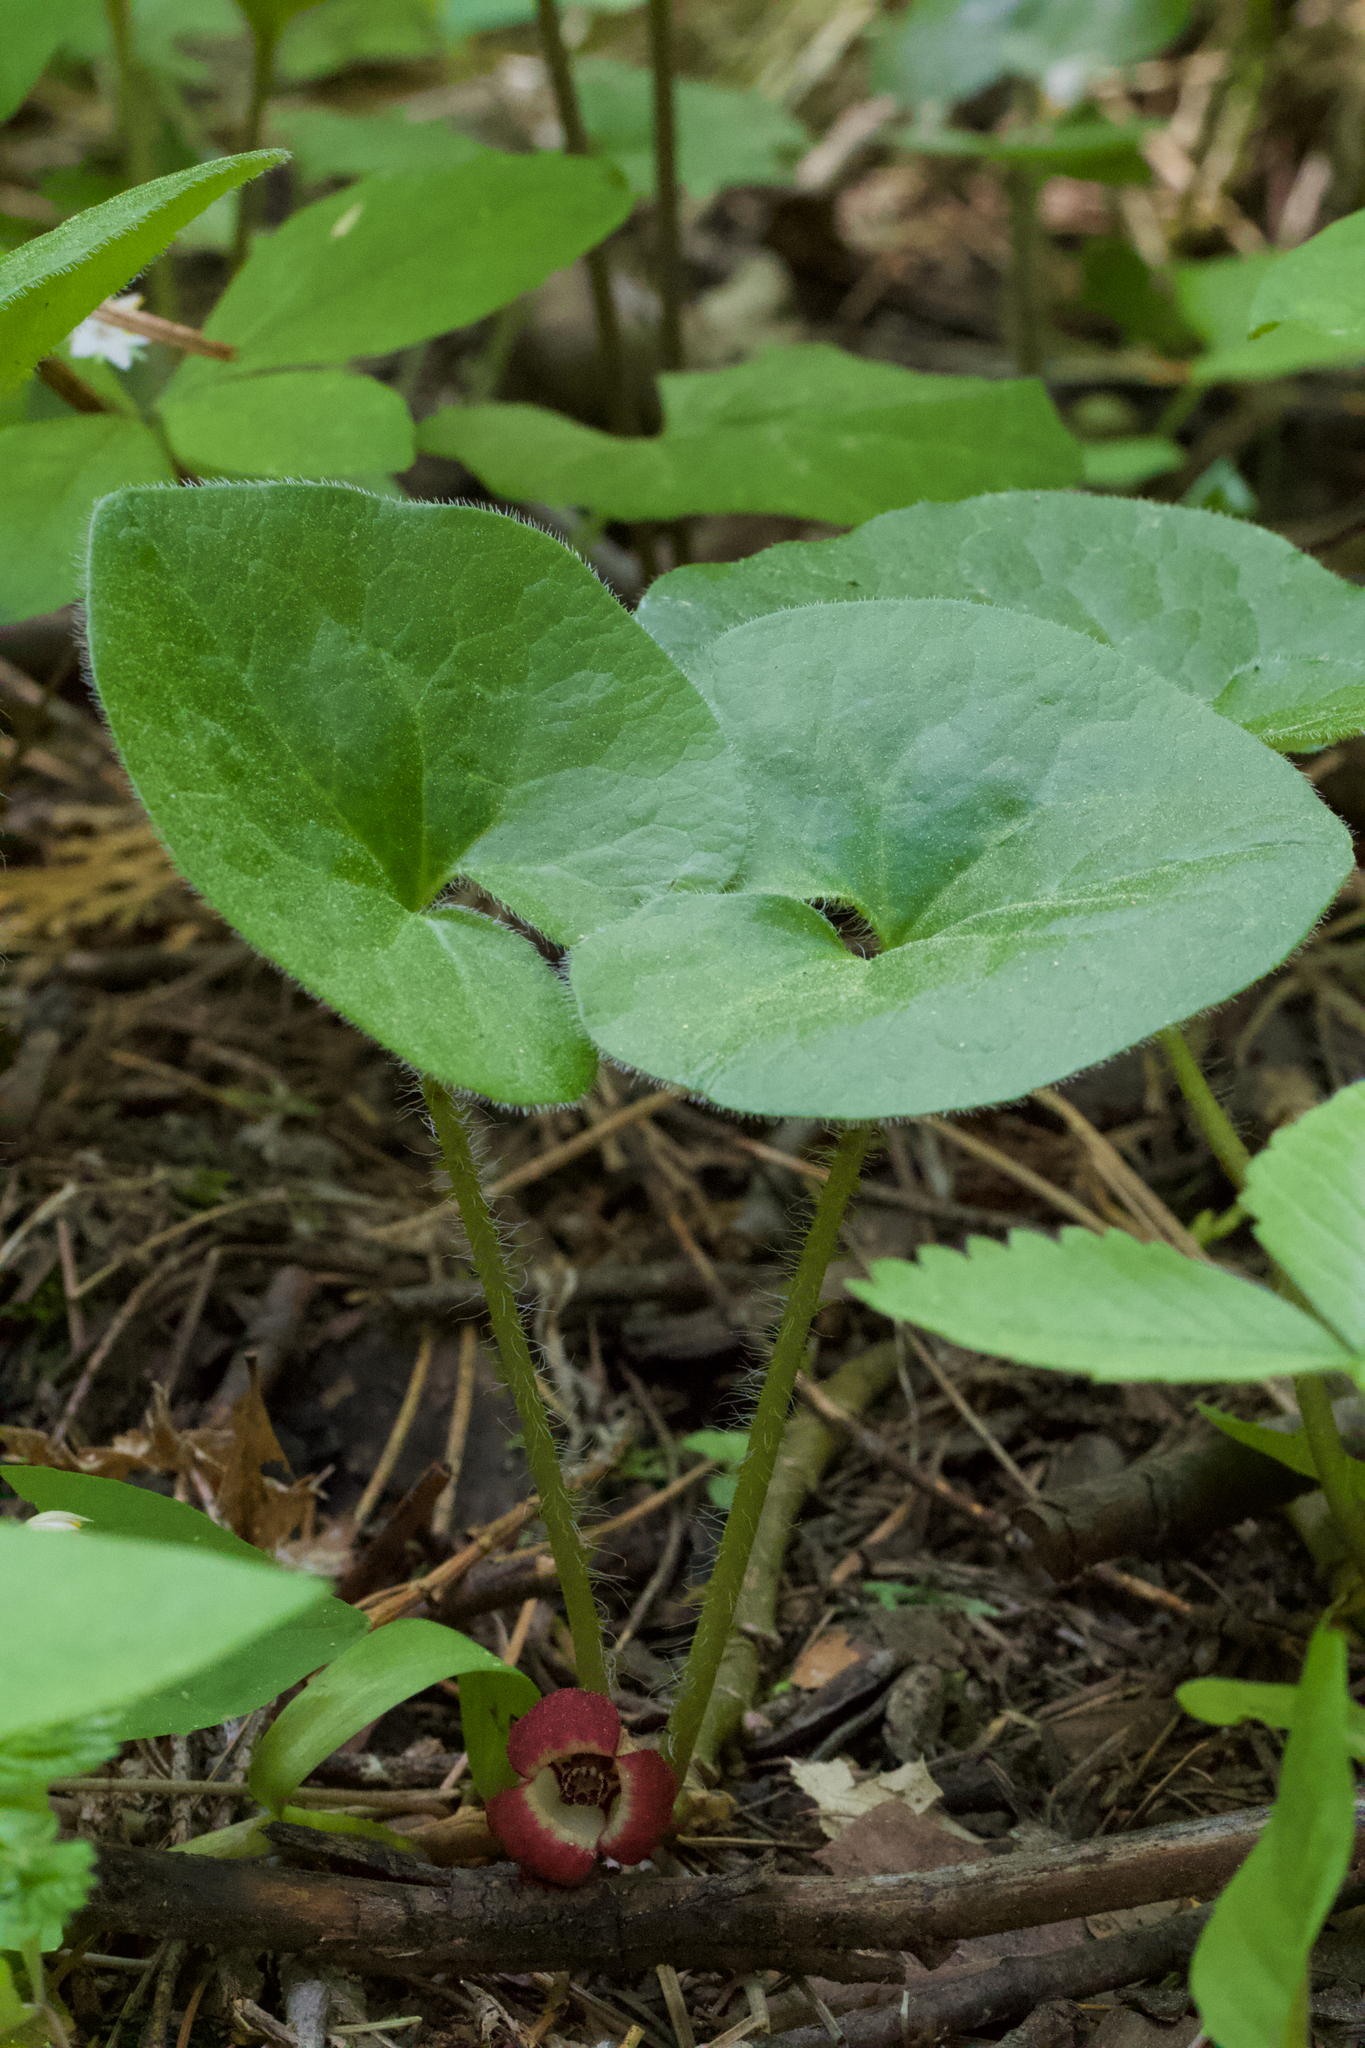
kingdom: Plantae
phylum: Tracheophyta
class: Magnoliopsida
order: Piperales
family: Aristolochiaceae
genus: Asarum
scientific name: Asarum lemmonii
